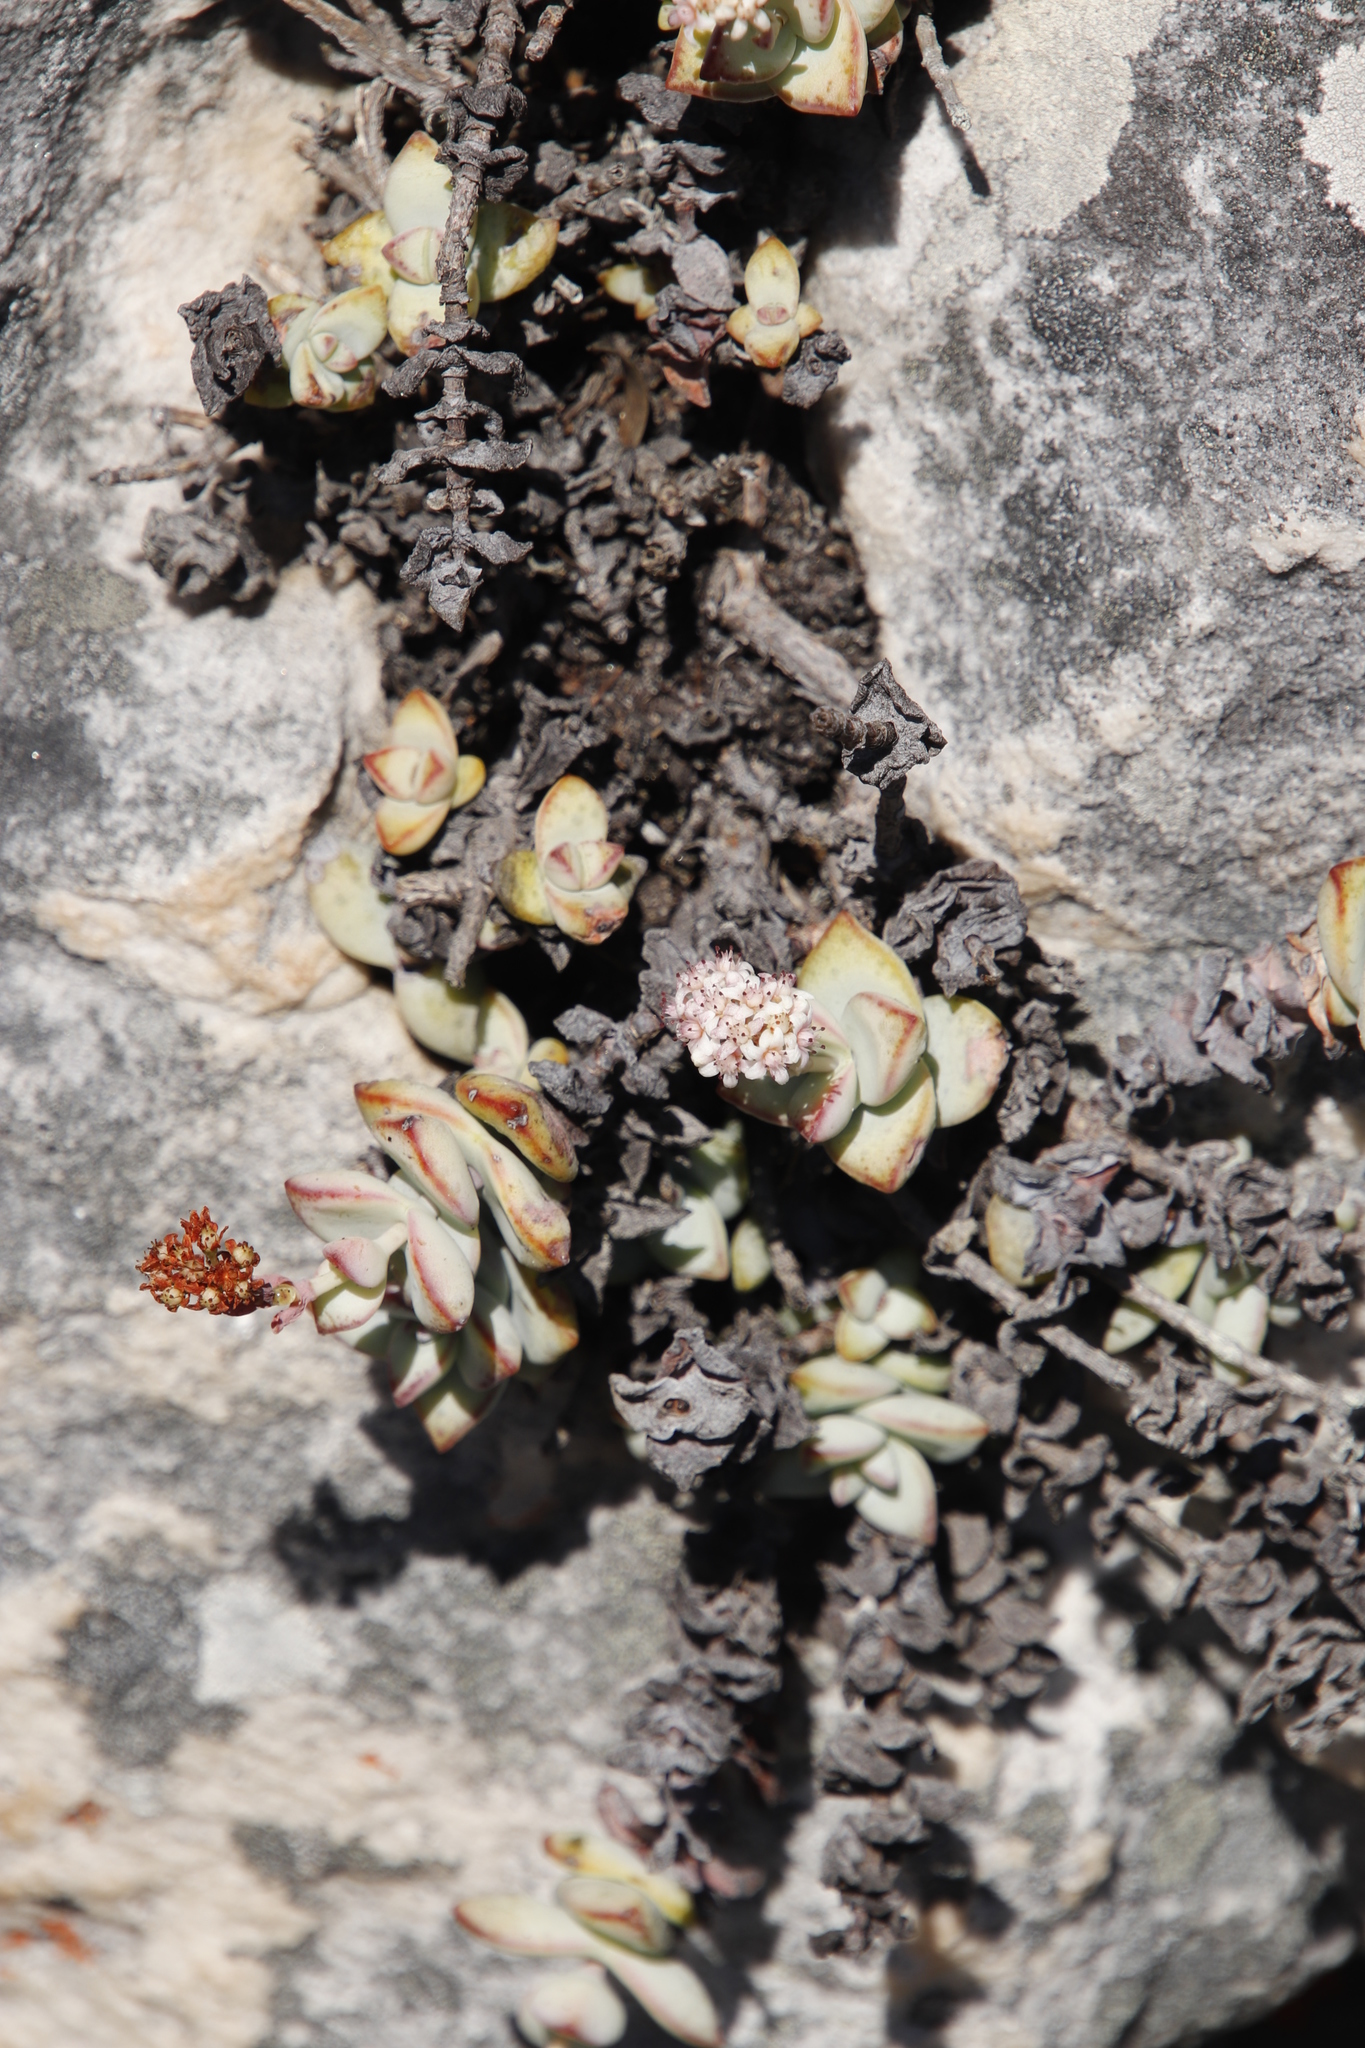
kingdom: Plantae
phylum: Tracheophyta
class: Magnoliopsida
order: Saxifragales
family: Crassulaceae
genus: Crassula
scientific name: Crassula rupestris
